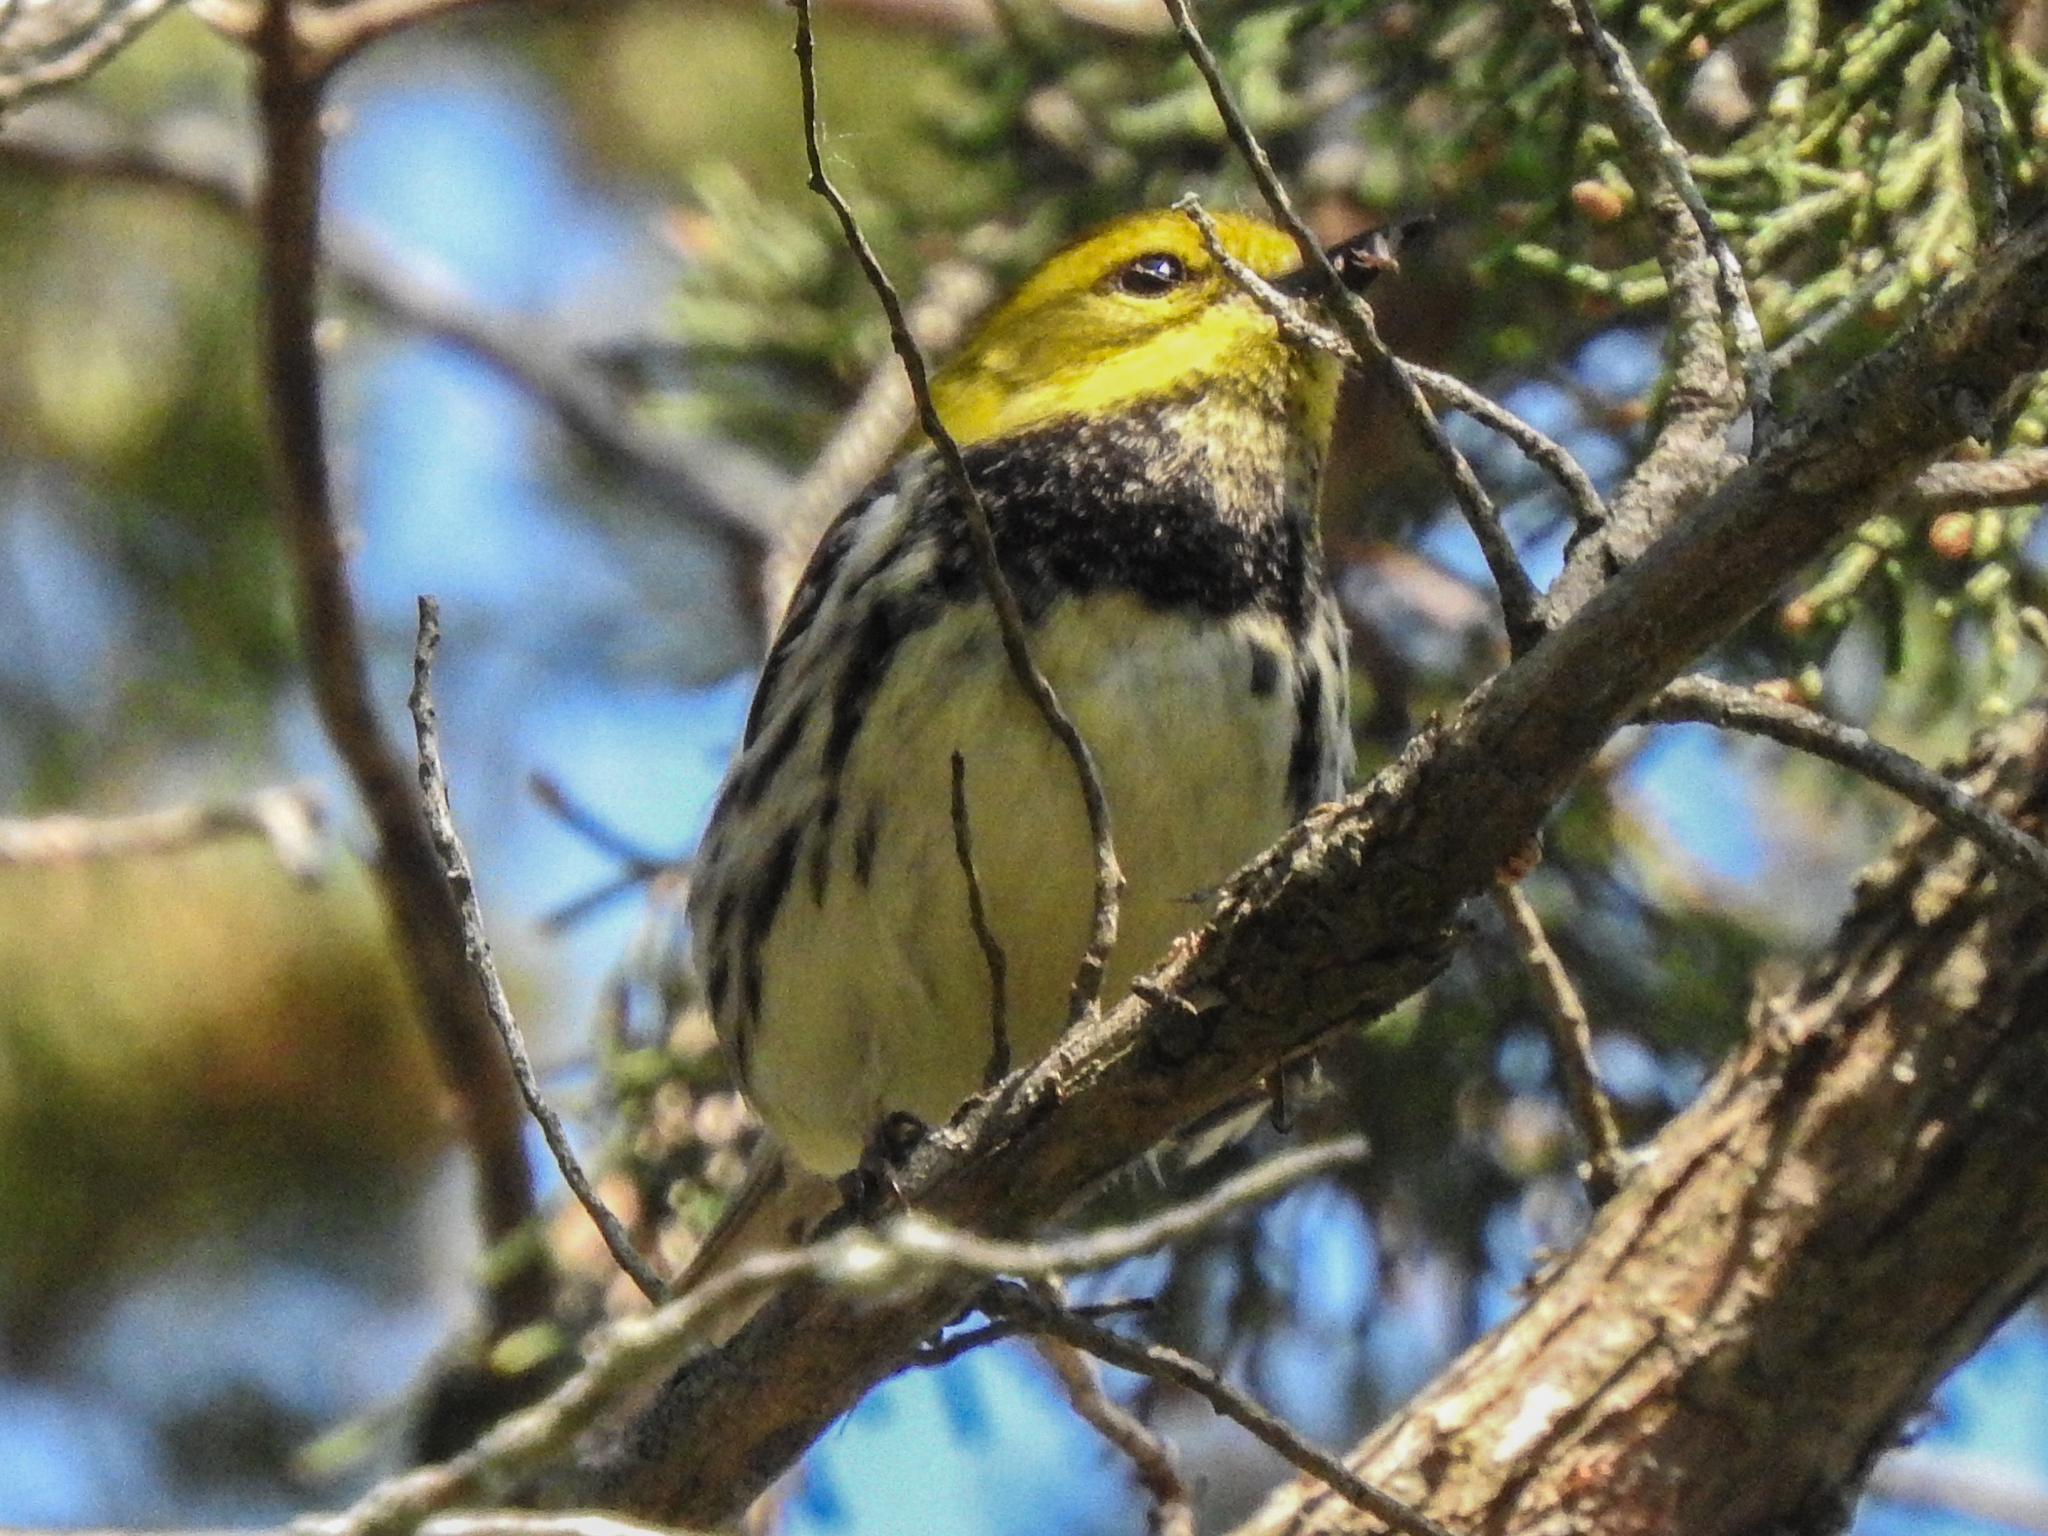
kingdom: Animalia
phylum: Chordata
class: Aves
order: Passeriformes
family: Parulidae
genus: Setophaga
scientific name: Setophaga virens
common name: Black-throated green warbler
